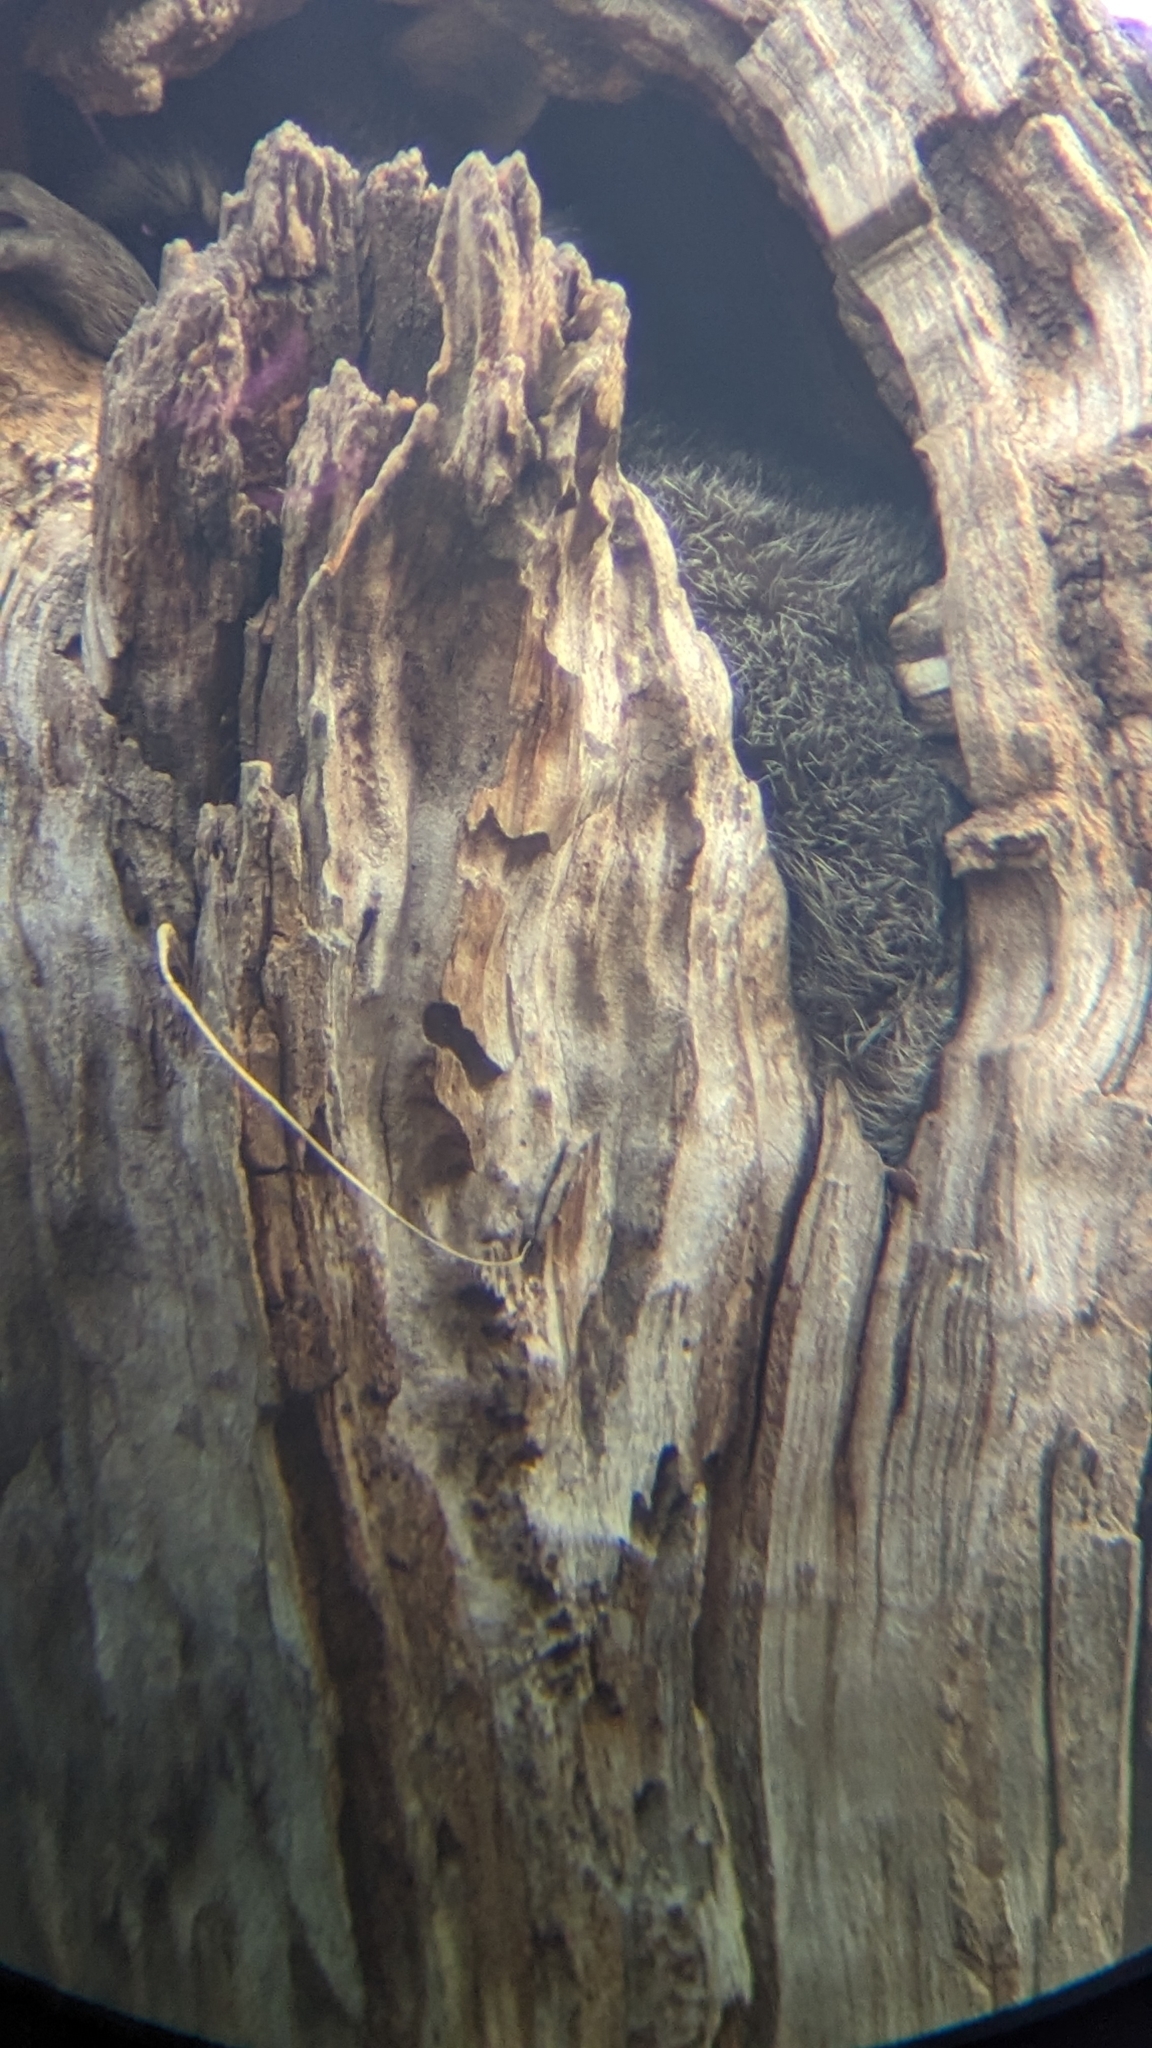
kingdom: Animalia
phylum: Chordata
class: Mammalia
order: Carnivora
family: Procyonidae
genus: Procyon
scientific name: Procyon lotor
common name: Raccoon
